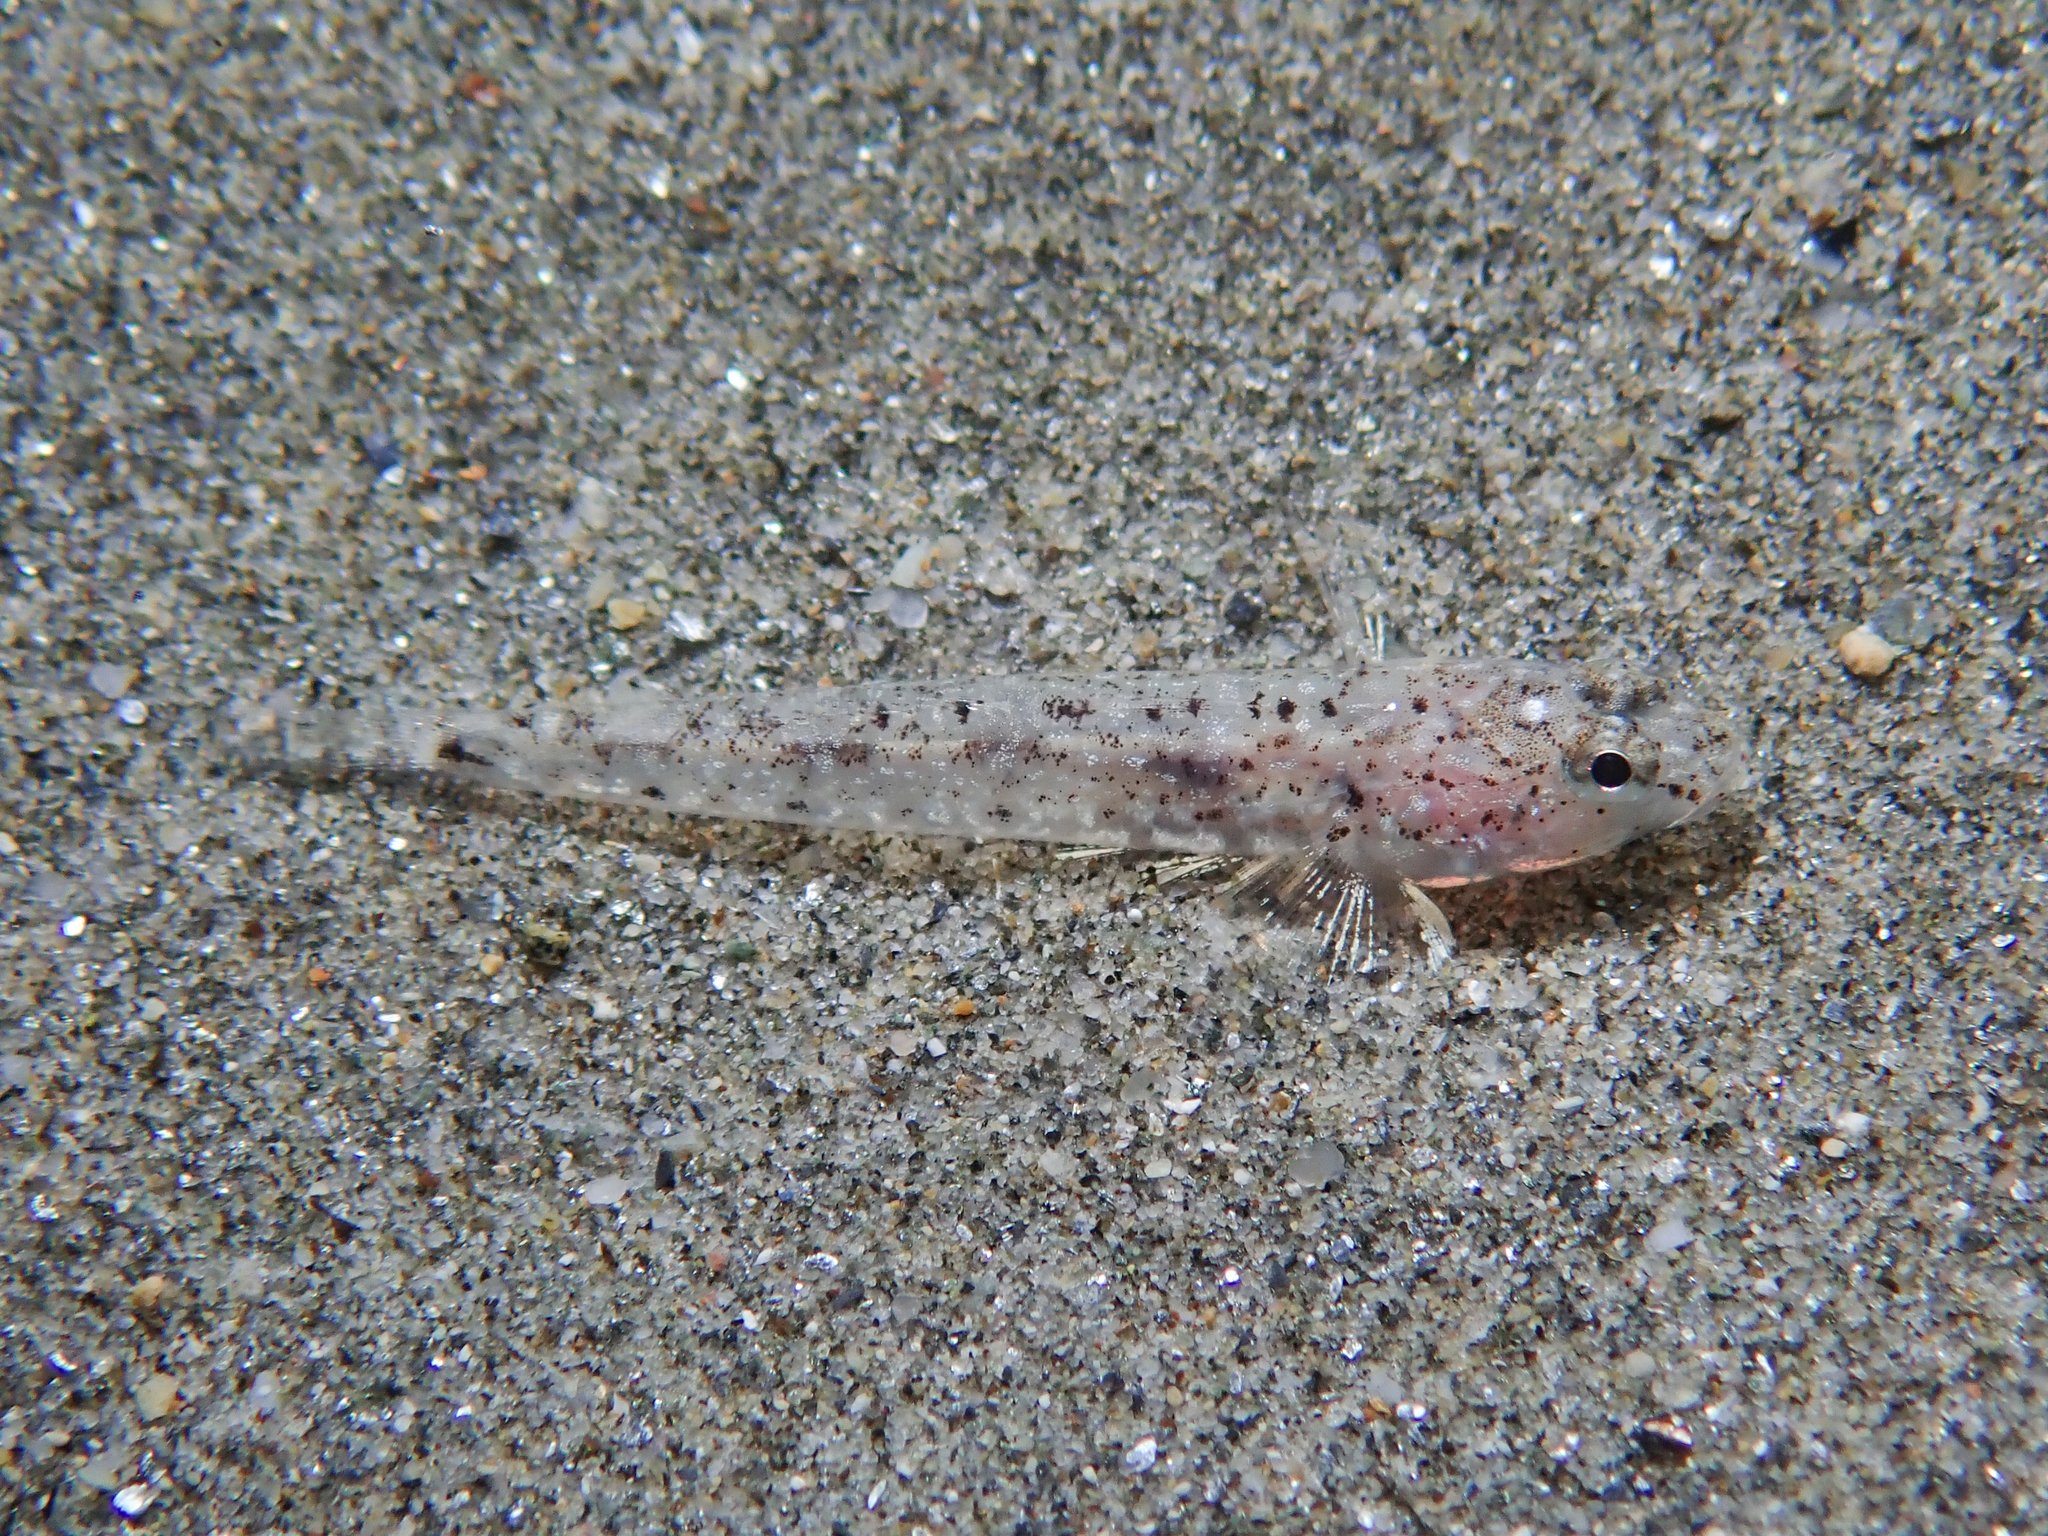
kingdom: Animalia
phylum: Chordata
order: Perciformes
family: Gobiidae
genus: Pomatoschistus
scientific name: Pomatoschistus marmoratus
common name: Marbled goby
